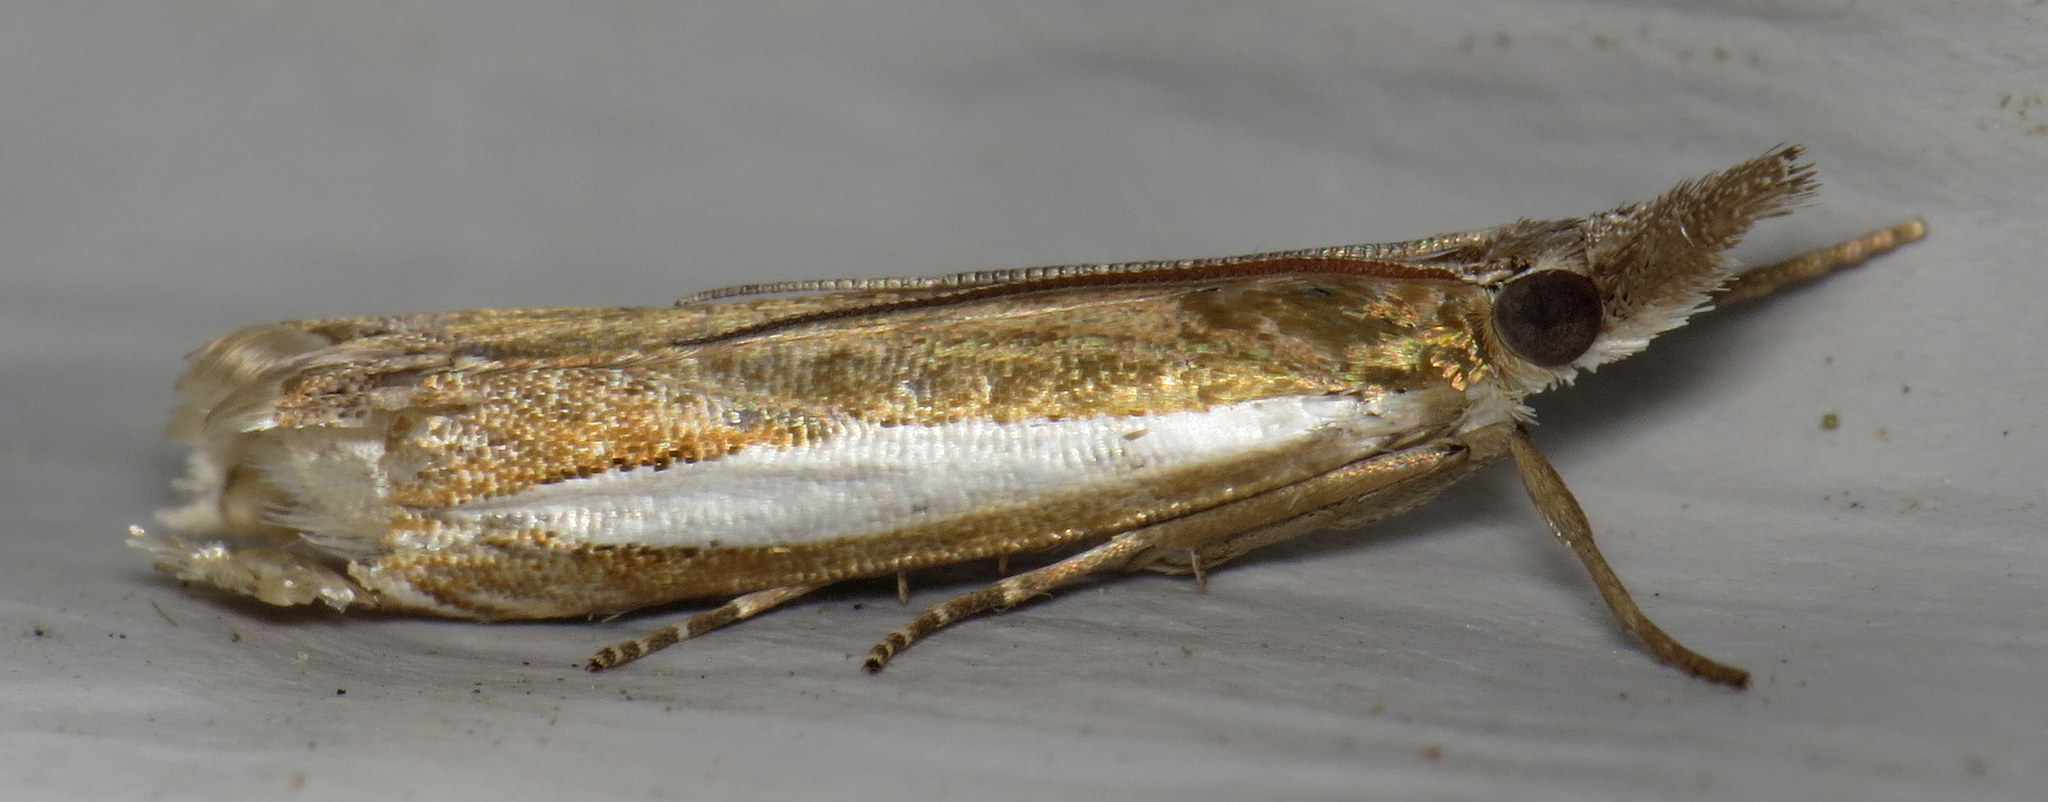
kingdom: Animalia
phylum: Arthropoda
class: Insecta
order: Lepidoptera
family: Crambidae
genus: Crambus
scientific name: Crambus praefectellus
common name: Common grass-veneer
